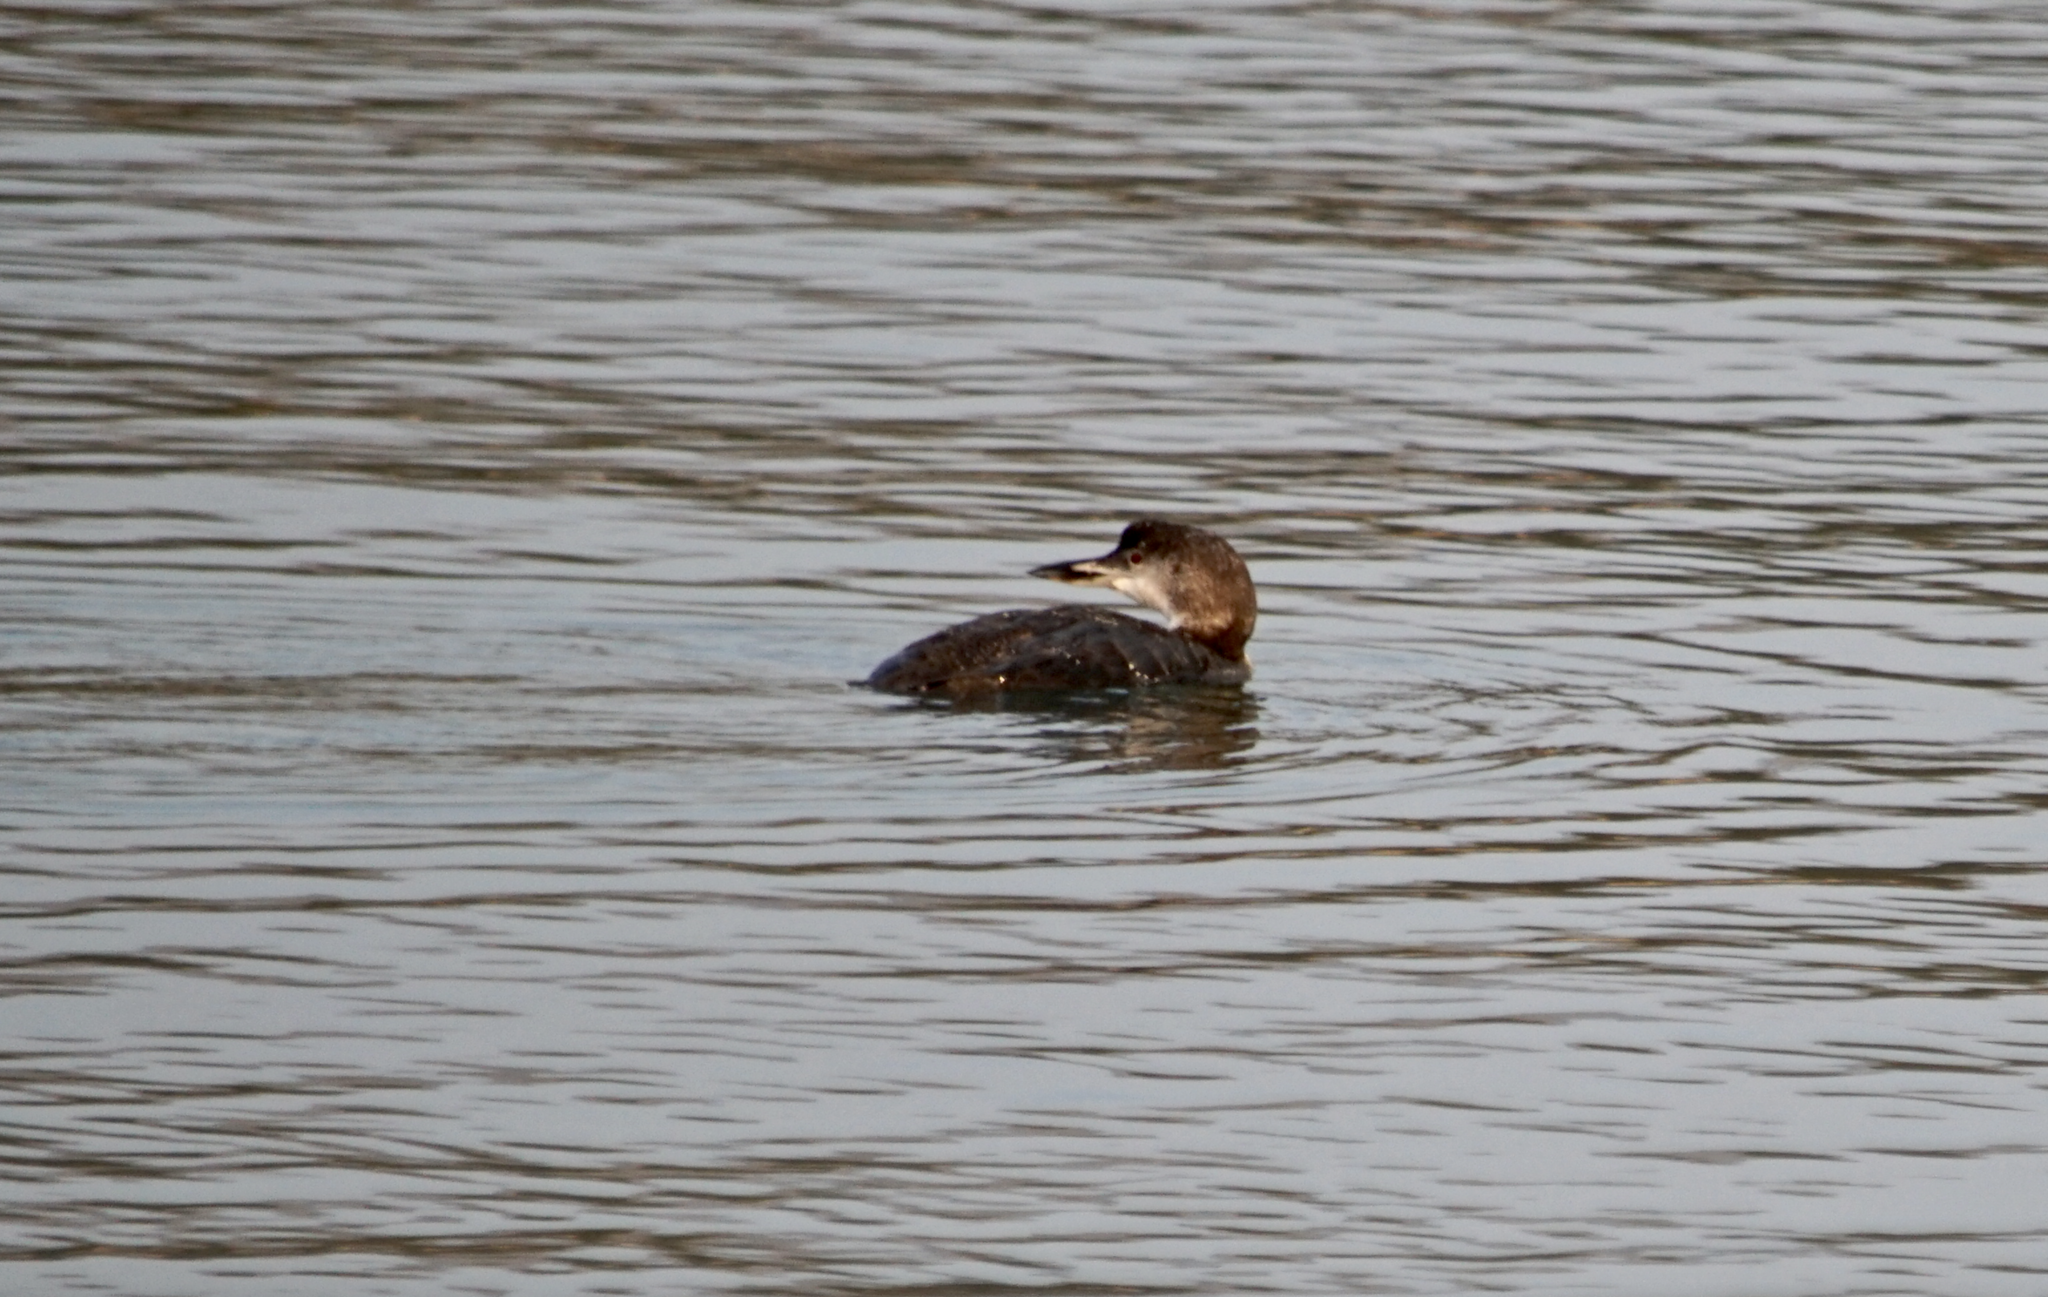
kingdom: Animalia
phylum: Chordata
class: Aves
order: Gaviiformes
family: Gaviidae
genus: Gavia
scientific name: Gavia immer
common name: Common loon
